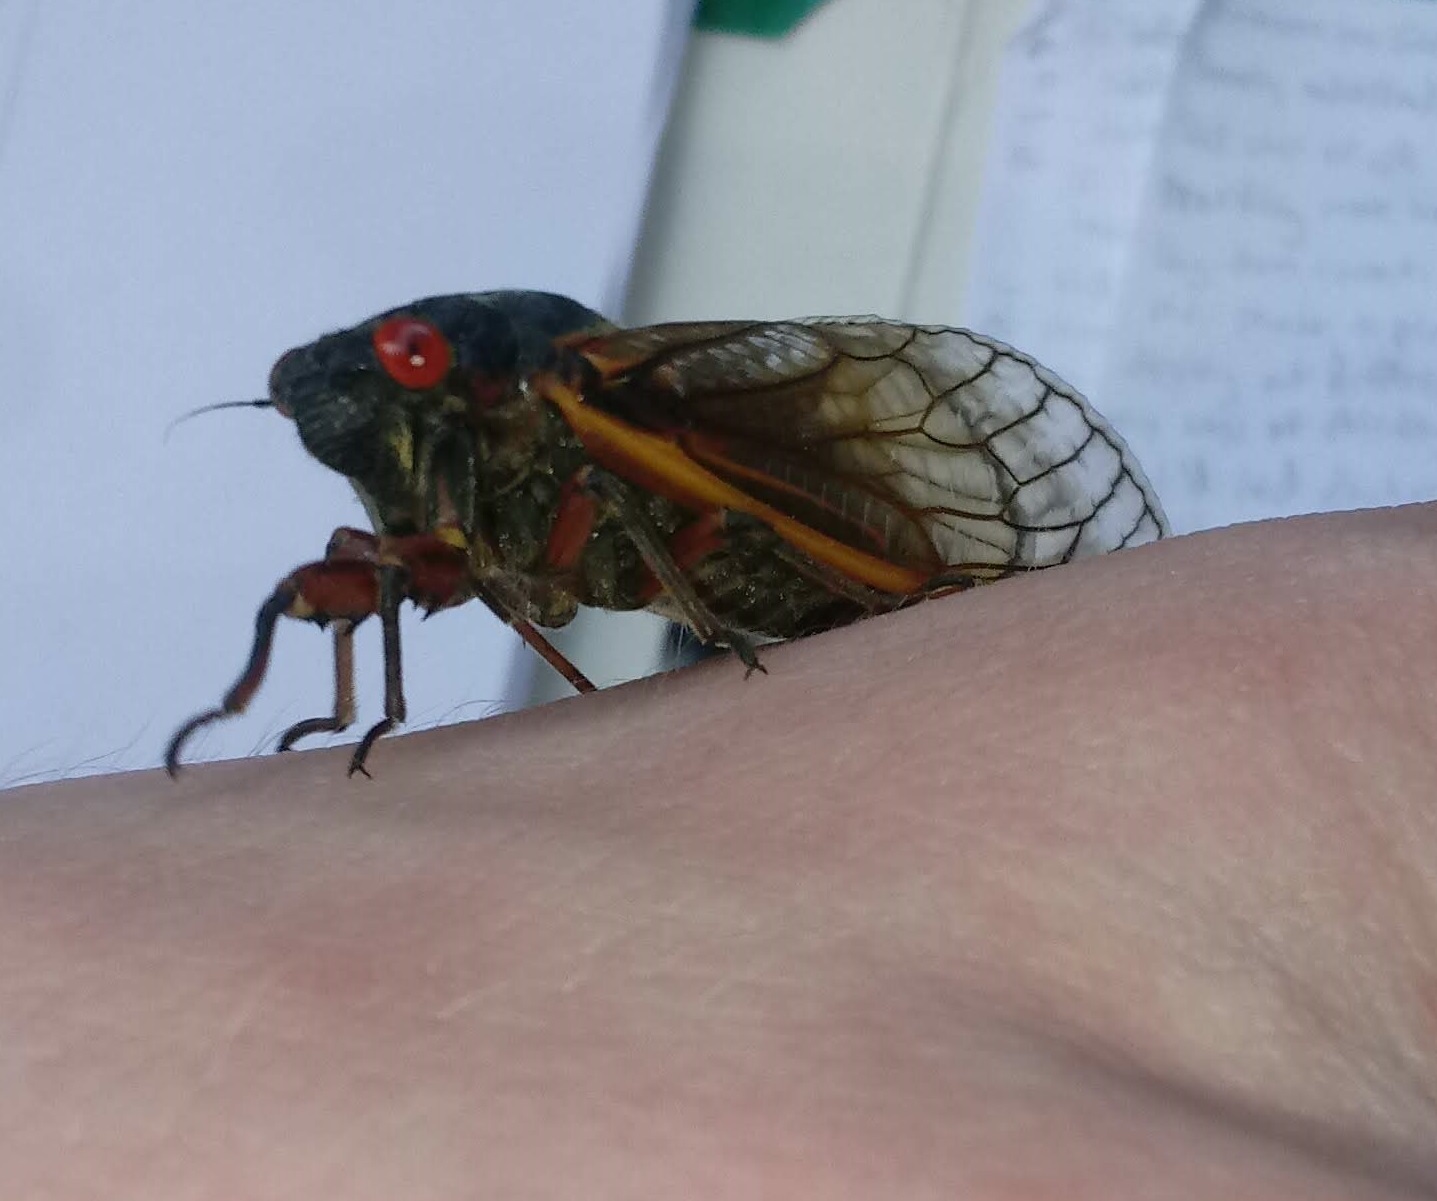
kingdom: Animalia
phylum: Arthropoda
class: Insecta
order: Hemiptera
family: Cicadidae
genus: Magicicada
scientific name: Magicicada septendecim
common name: Periodical cicada
